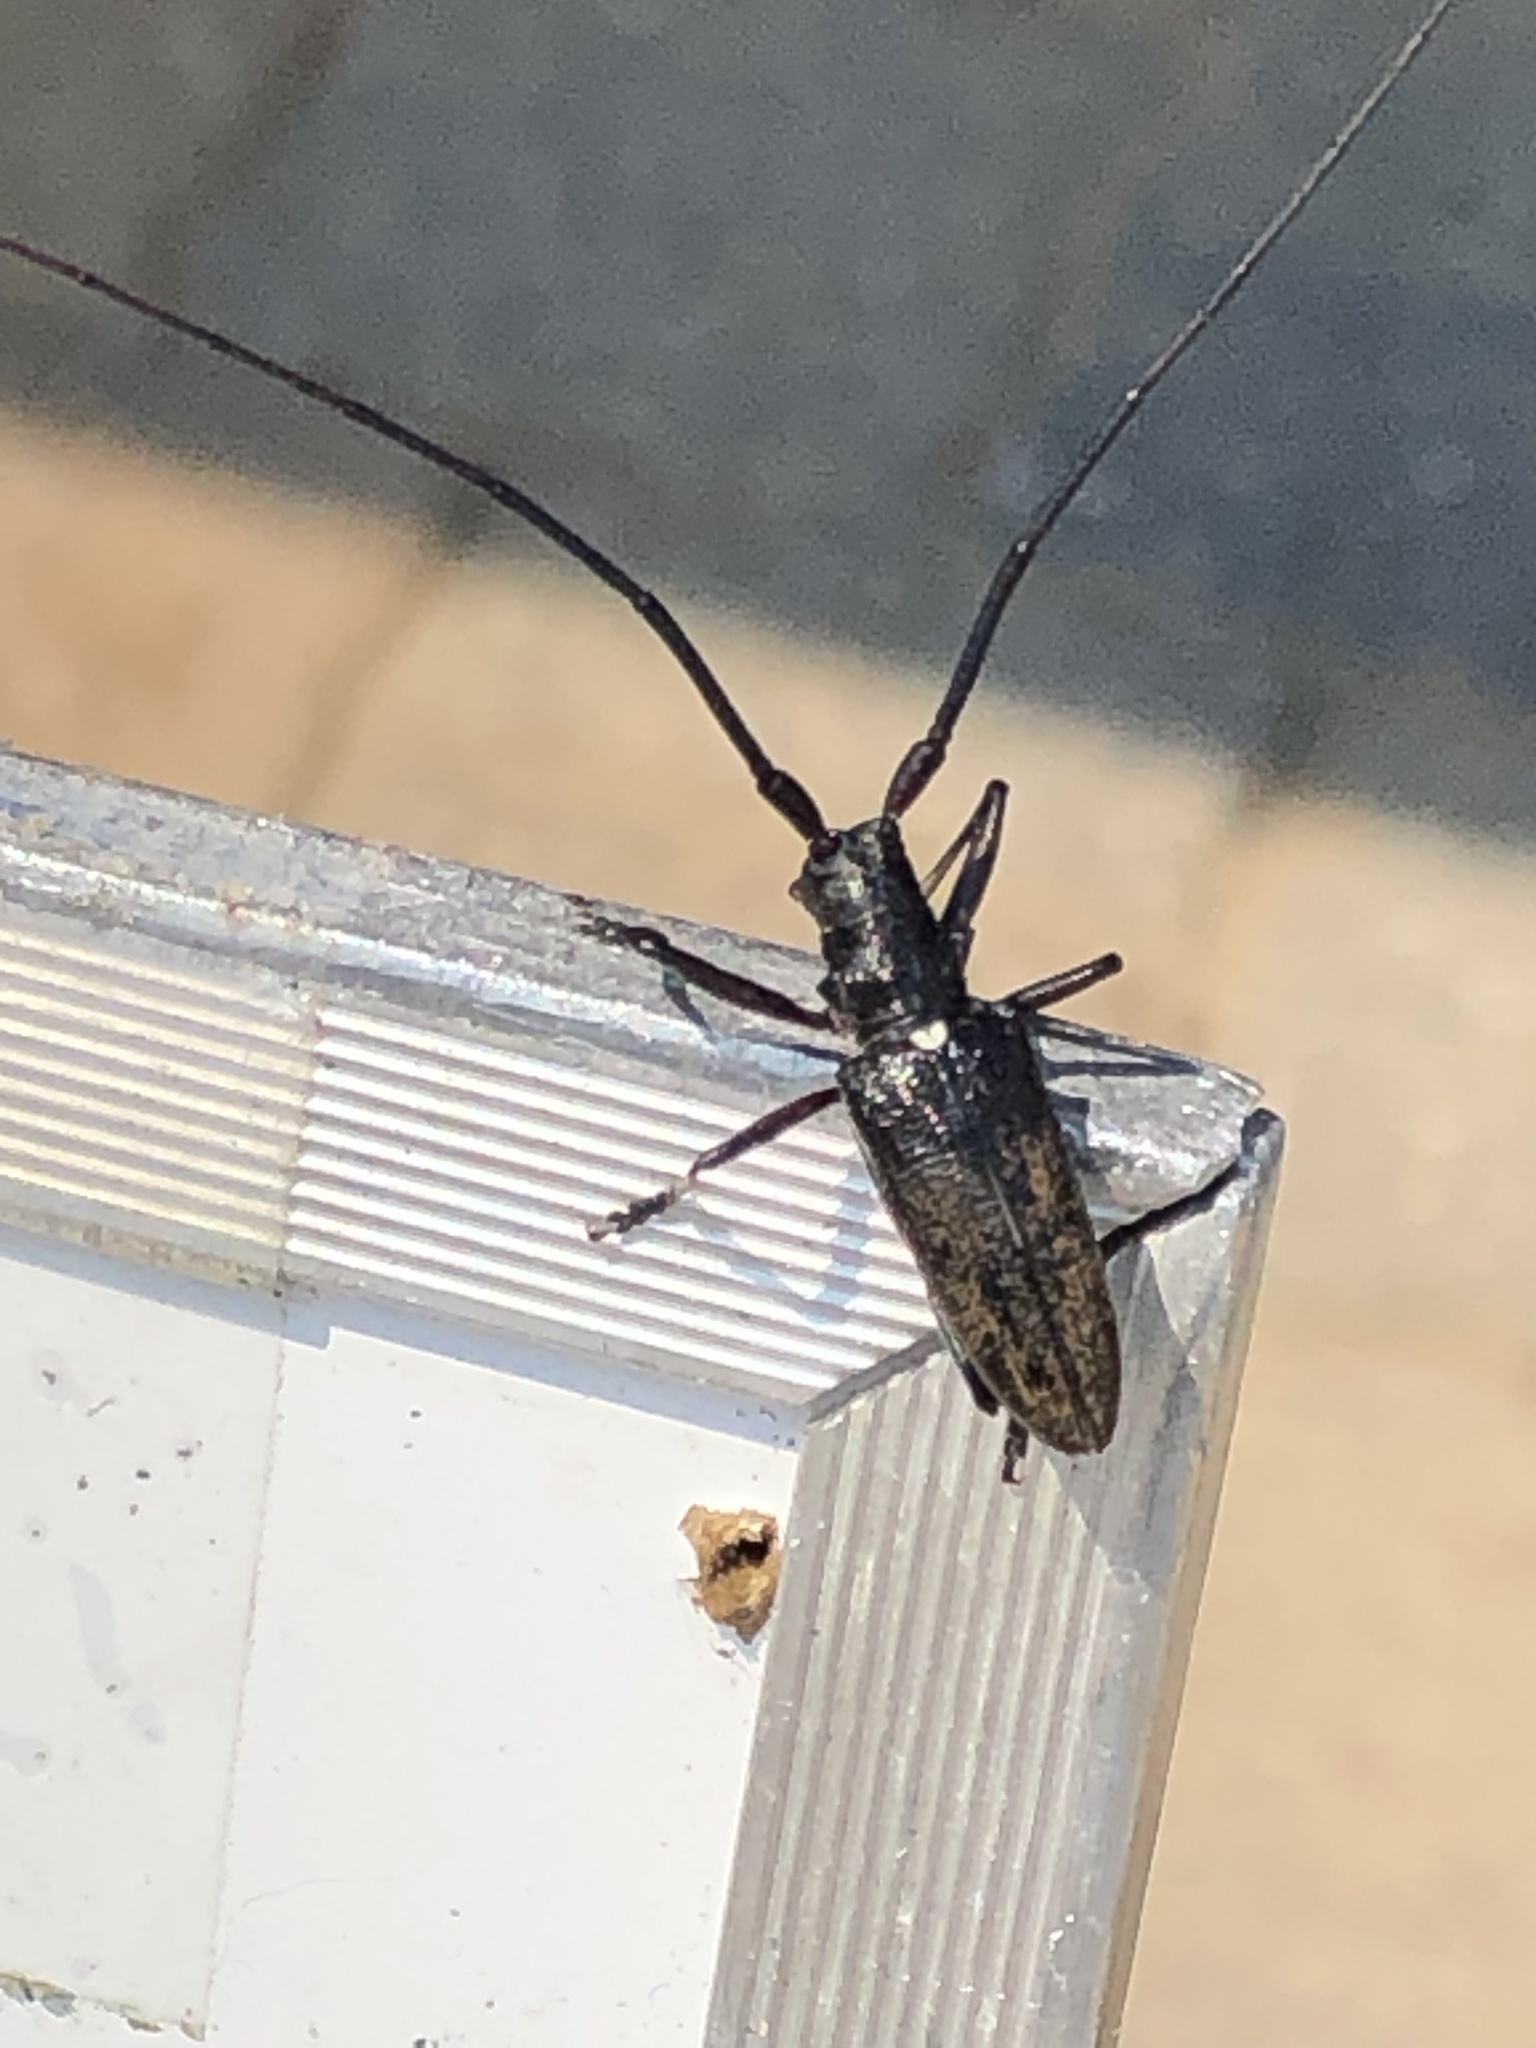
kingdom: Animalia
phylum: Arthropoda
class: Insecta
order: Coleoptera
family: Cerambycidae
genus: Monochamus
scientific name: Monochamus scutellatus
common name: White-spotted sawyer beetle
